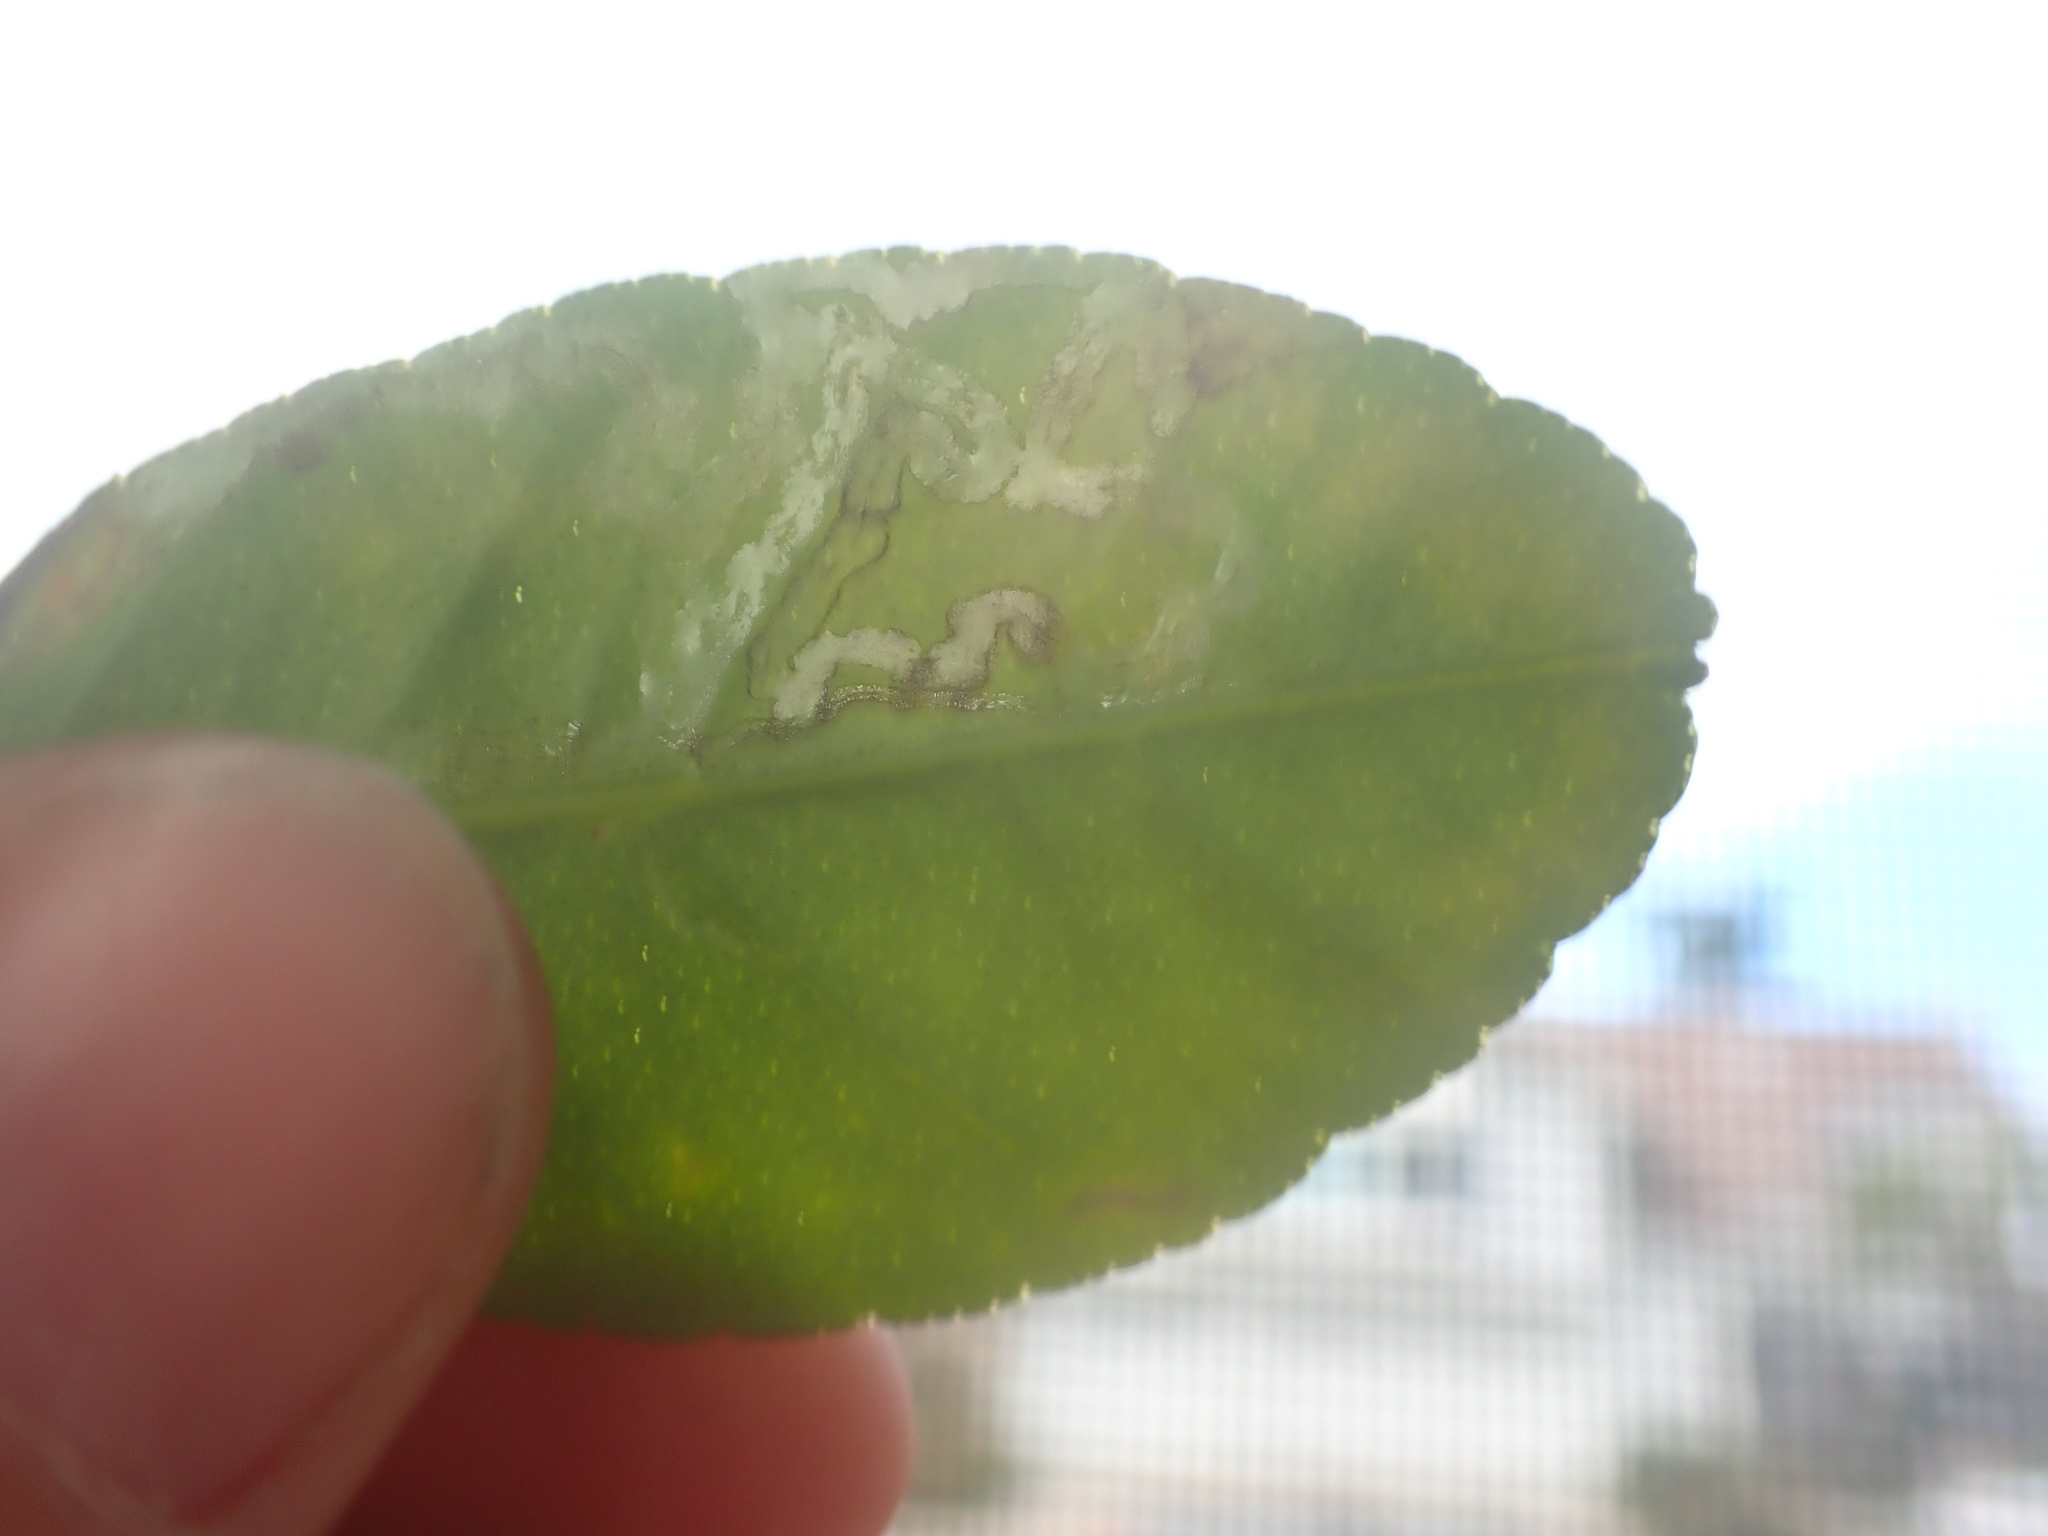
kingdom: Animalia
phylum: Arthropoda
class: Insecta
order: Lepidoptera
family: Gracillariidae
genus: Phyllocnistis
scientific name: Phyllocnistis citrella
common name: Citrus leafminer
